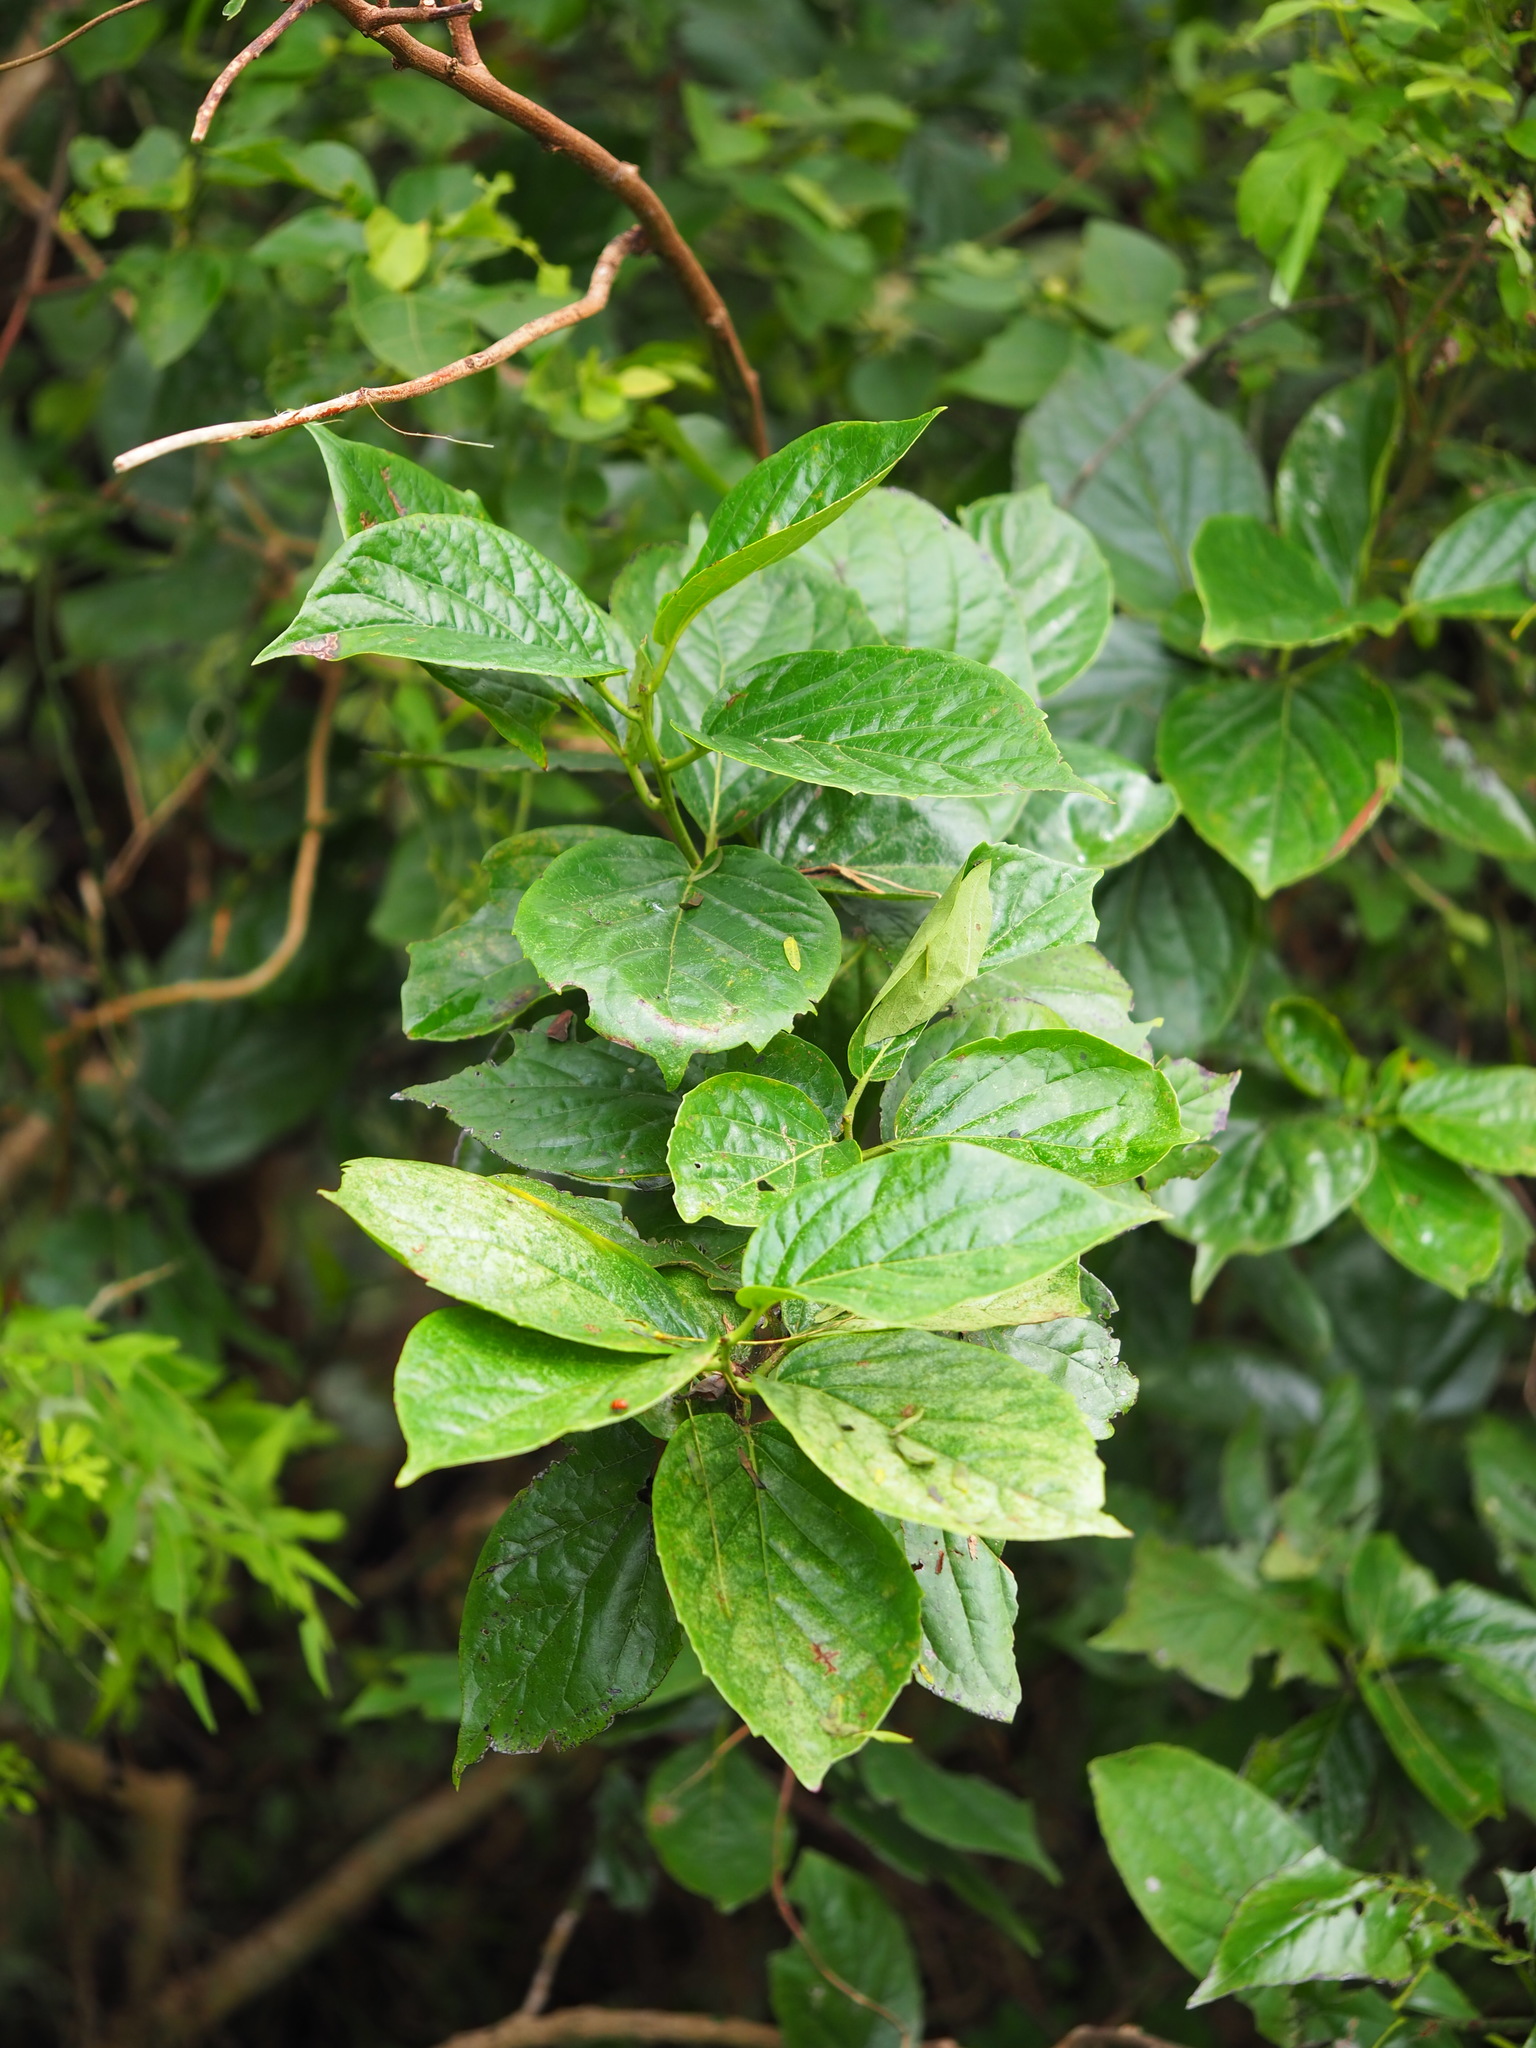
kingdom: Plantae
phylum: Tracheophyta
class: Magnoliopsida
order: Boraginales
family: Ehretiaceae
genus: Ehretia
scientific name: Ehretia resinosa
